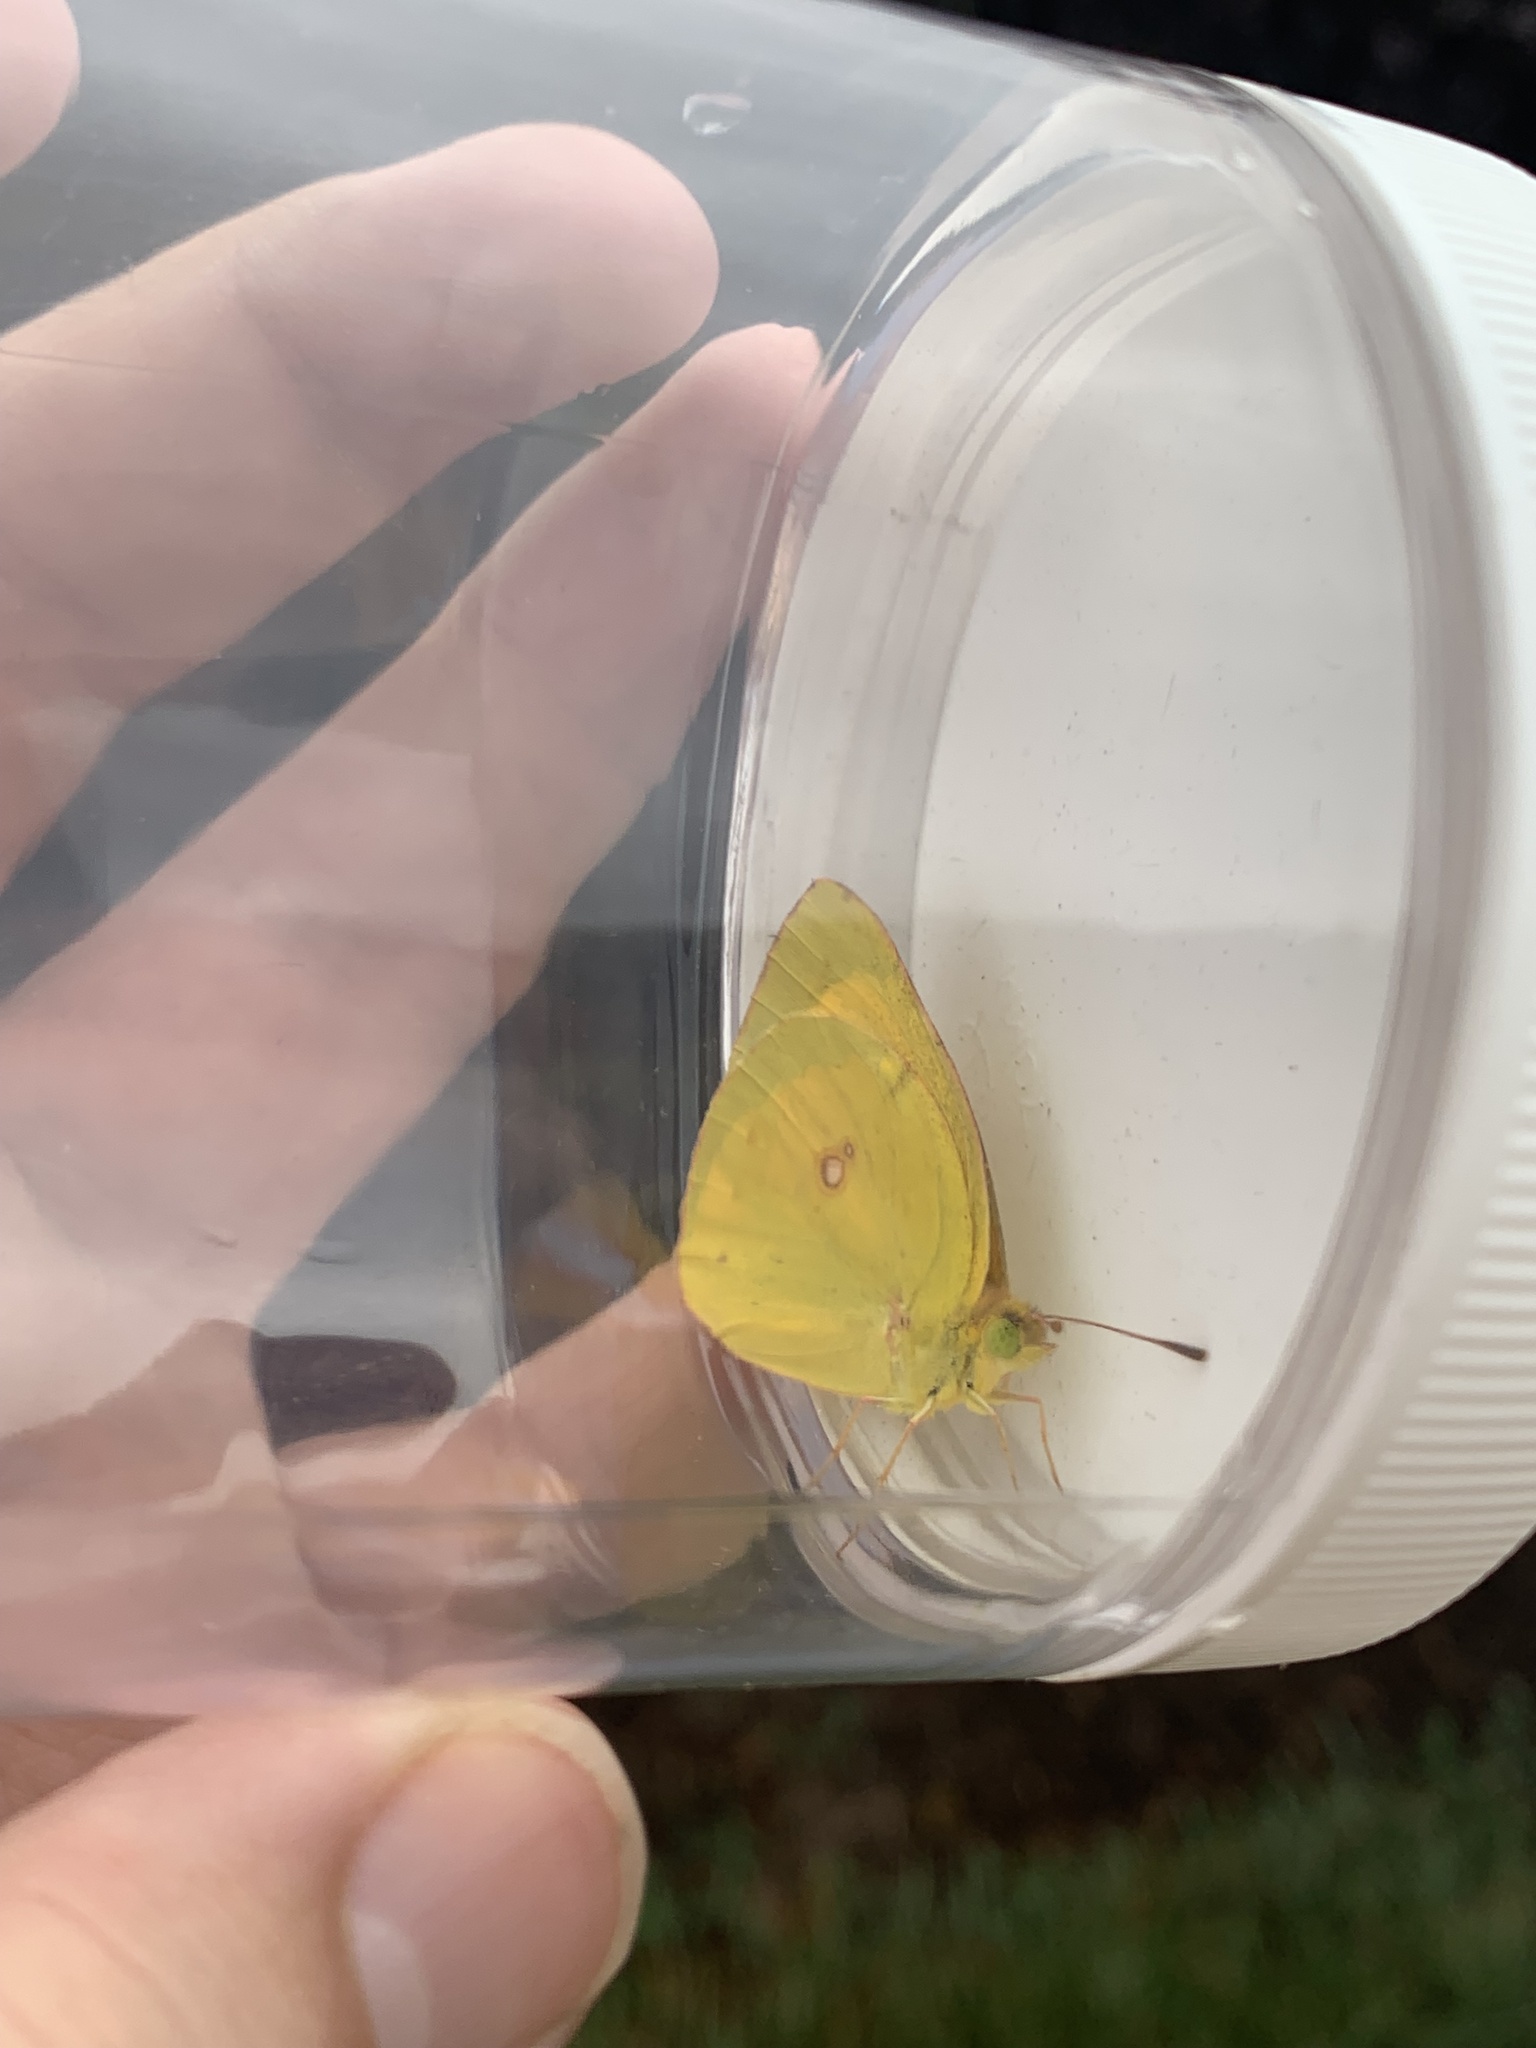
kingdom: Animalia
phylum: Arthropoda
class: Insecta
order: Lepidoptera
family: Pieridae
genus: Colias
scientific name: Colias eurytheme
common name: Alfalfa butterfly
